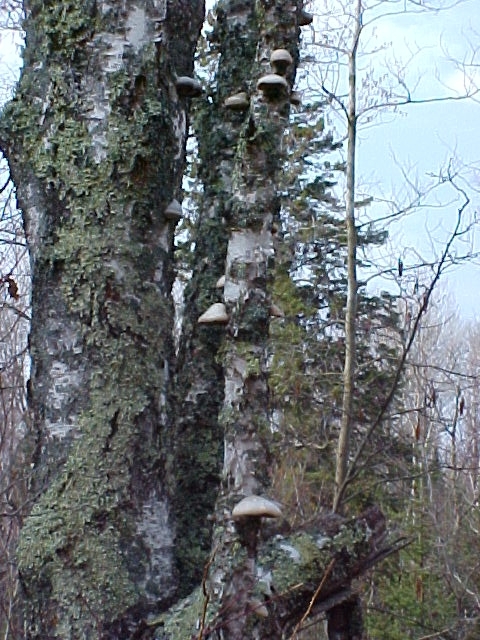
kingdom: Fungi
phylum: Basidiomycota
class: Agaricomycetes
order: Polyporales
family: Fomitopsidaceae
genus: Fomitopsis
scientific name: Fomitopsis betulina
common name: Birch polypore
